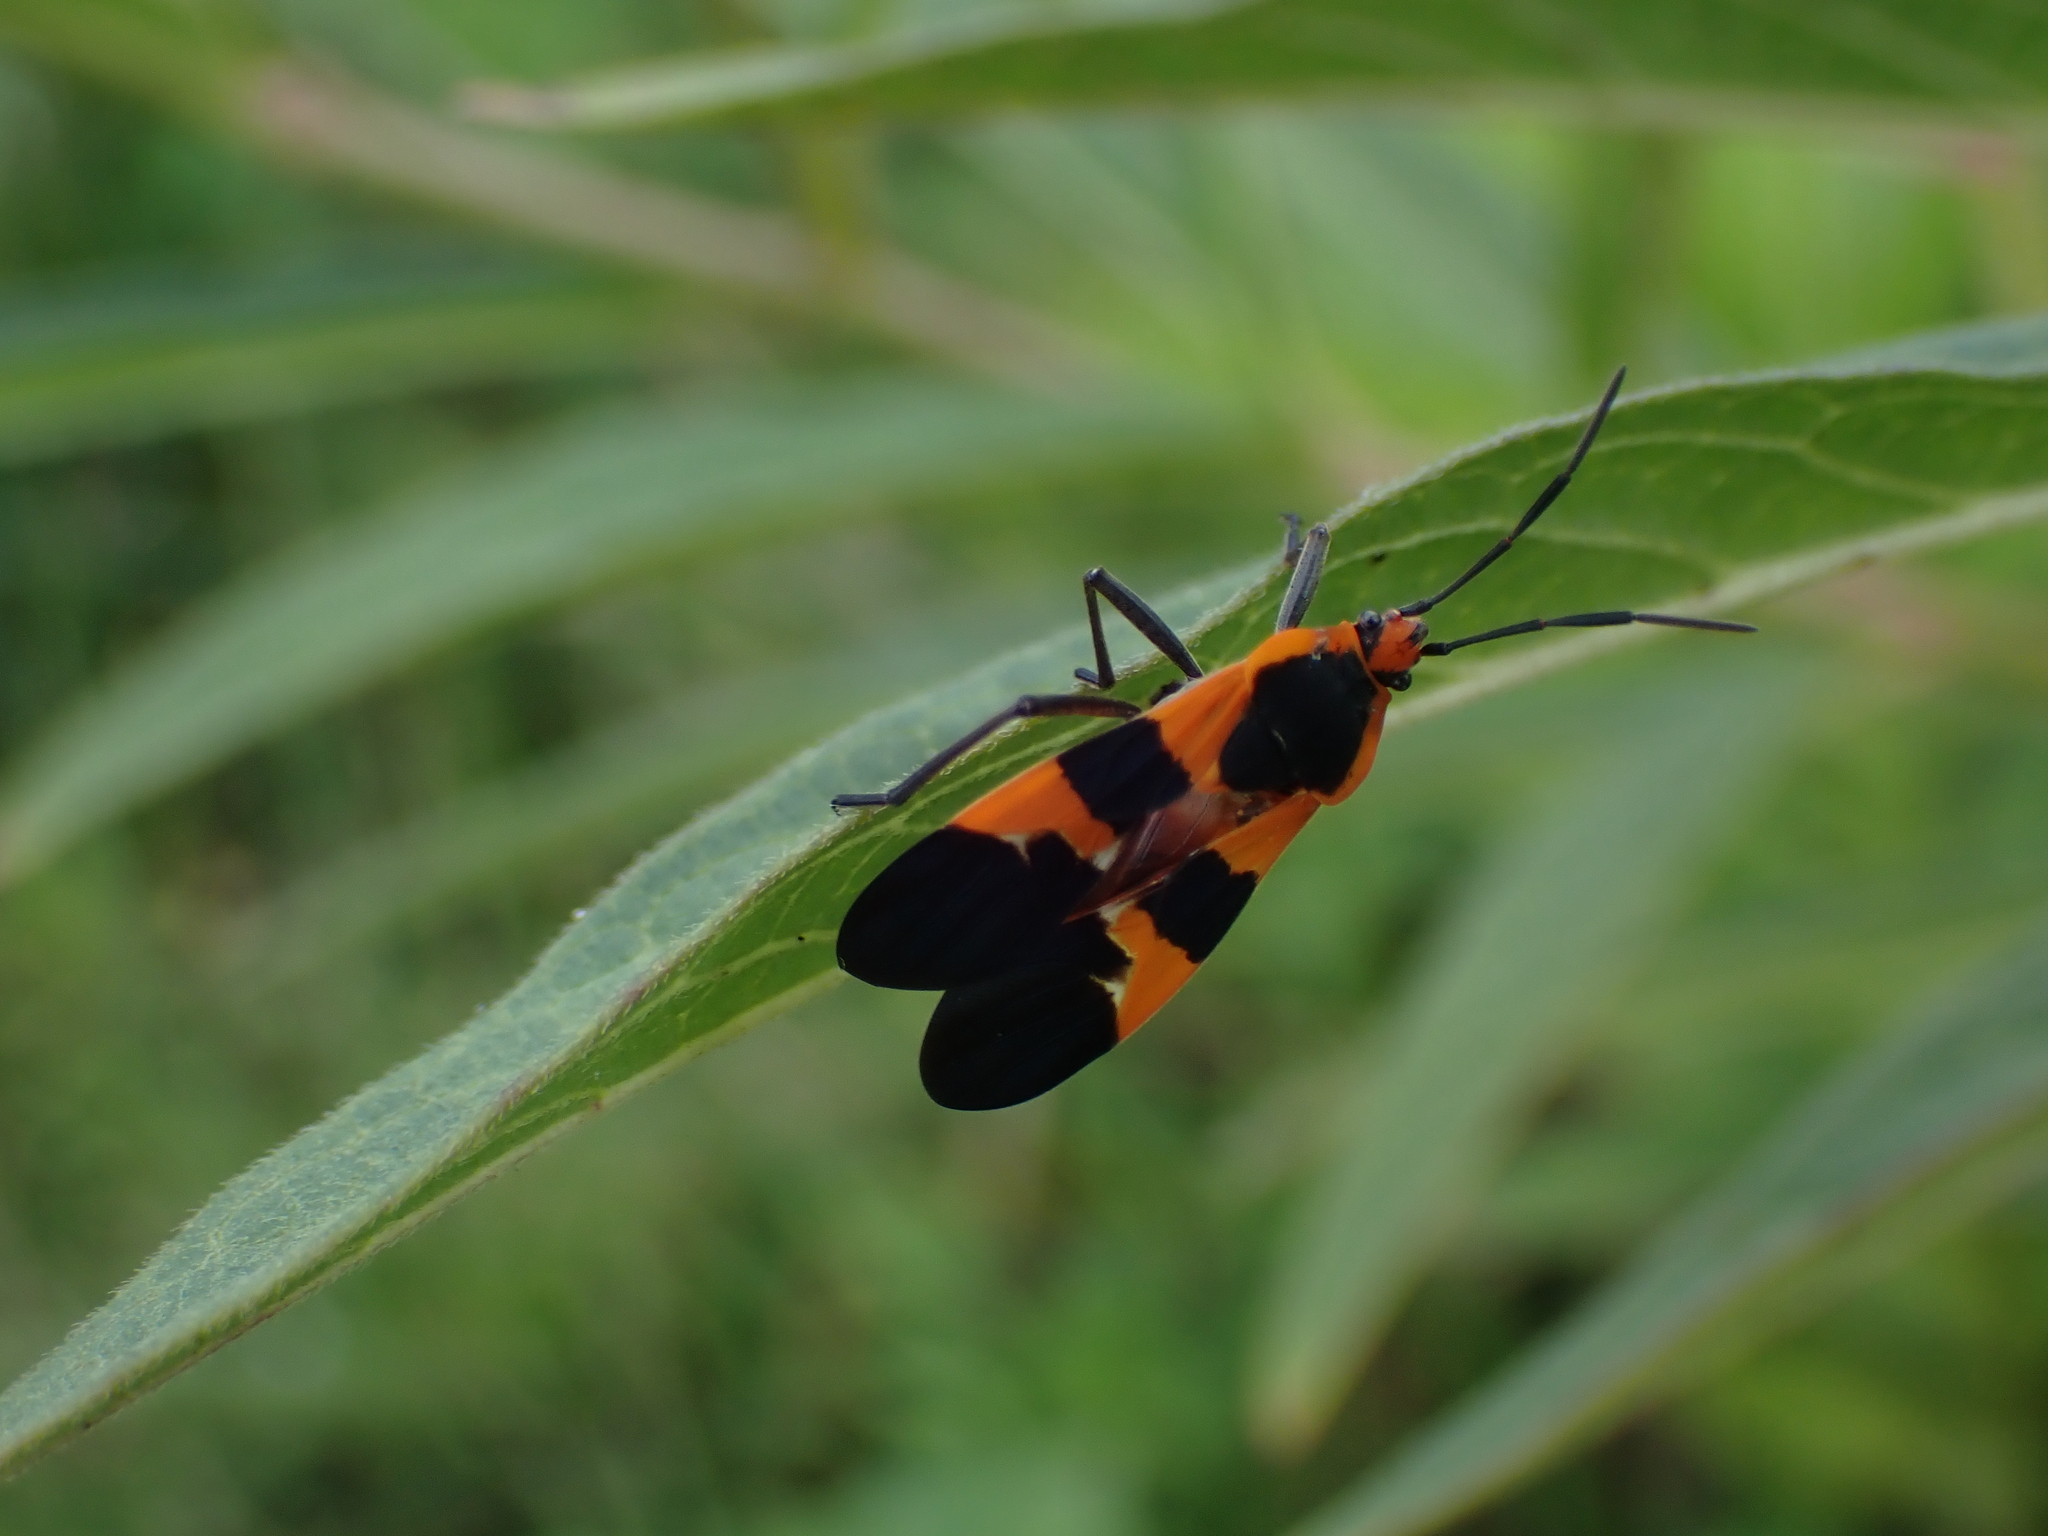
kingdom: Animalia
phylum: Arthropoda
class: Insecta
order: Hemiptera
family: Lygaeidae
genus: Oncopeltus
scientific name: Oncopeltus fasciatus
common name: Large milkweed bug
